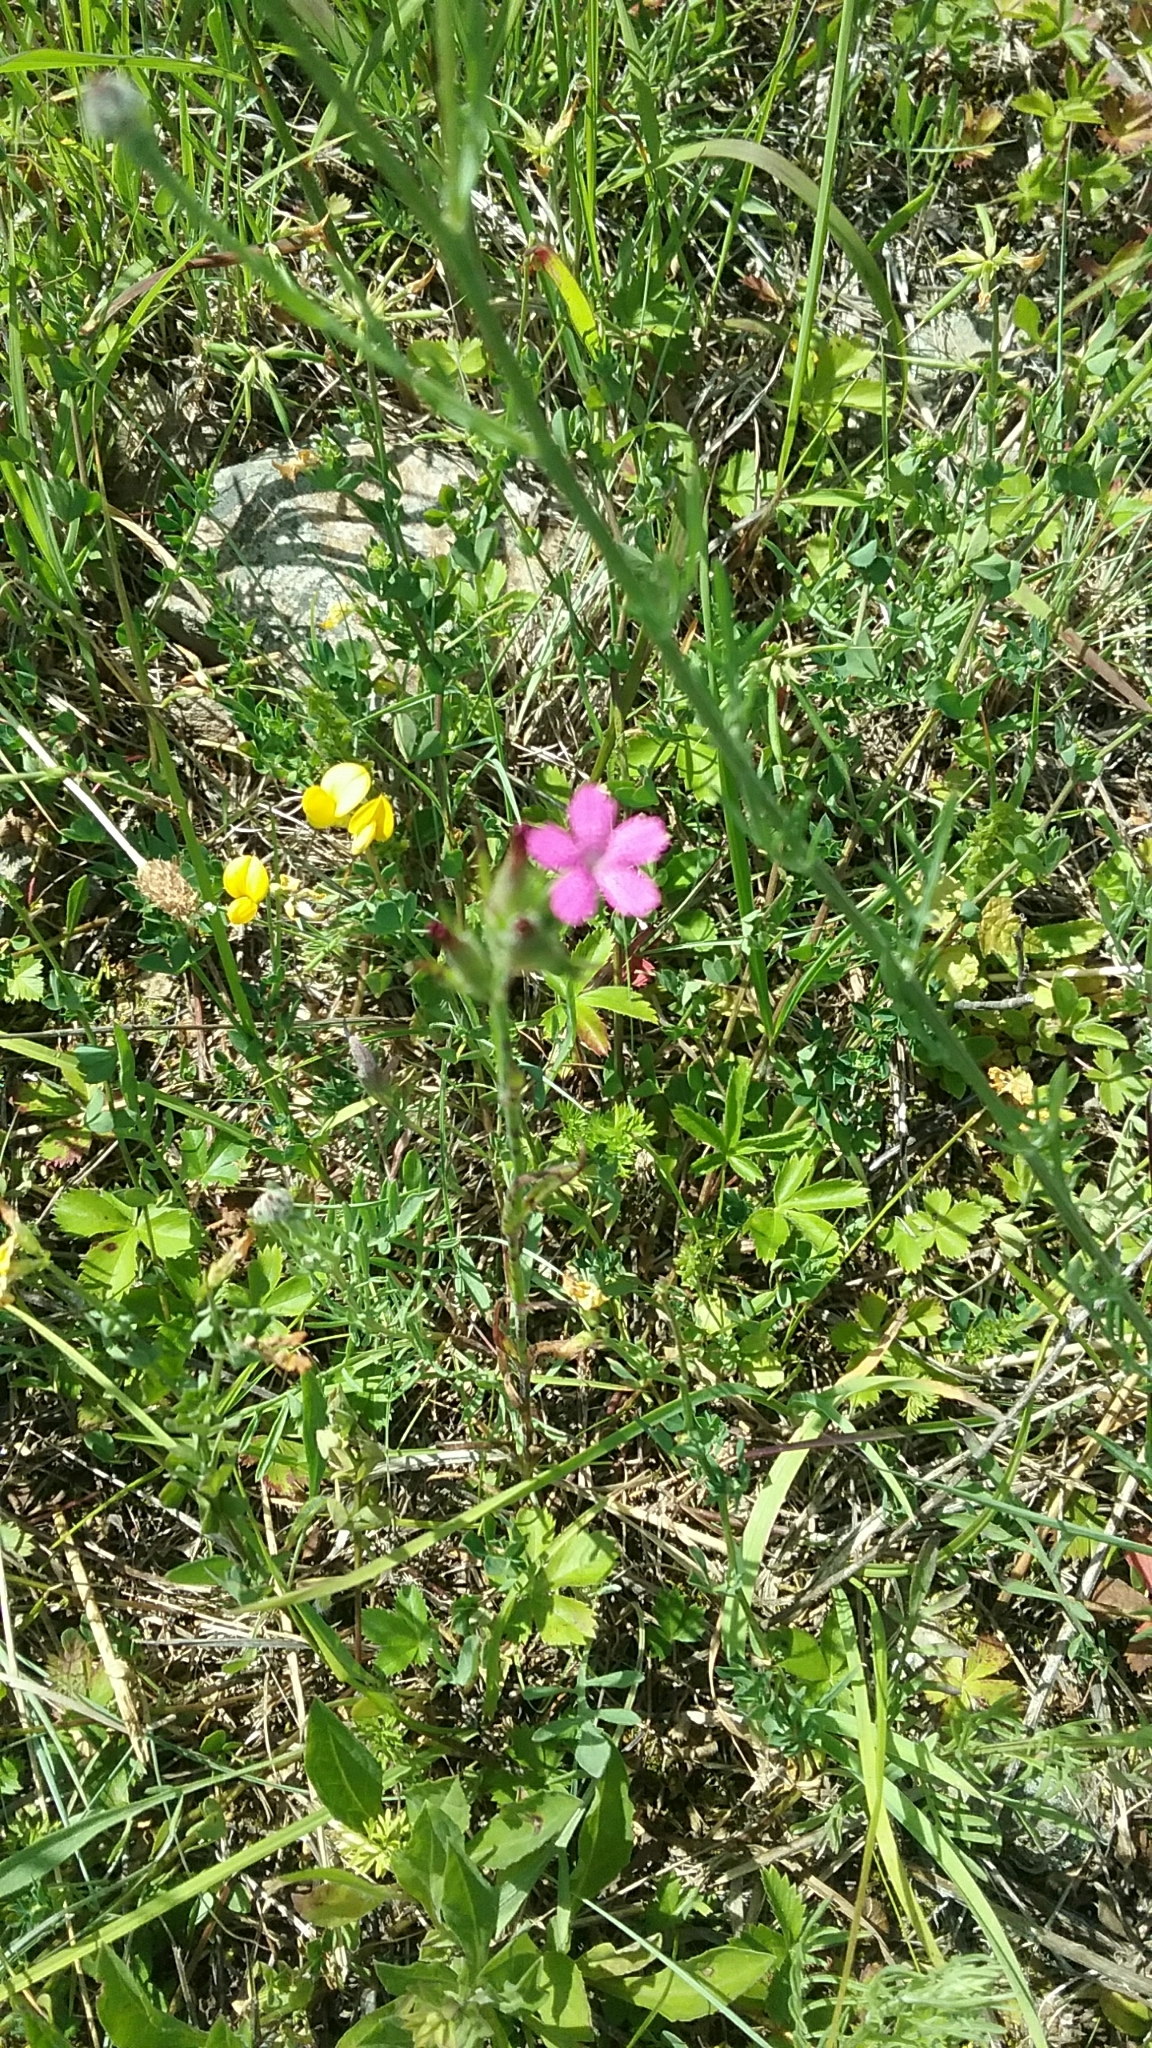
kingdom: Plantae
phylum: Tracheophyta
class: Magnoliopsida
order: Caryophyllales
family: Caryophyllaceae
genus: Dianthus
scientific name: Dianthus armeria
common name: Deptford pink
